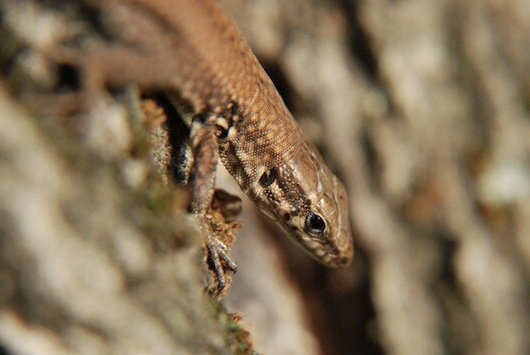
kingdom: Animalia
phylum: Chordata
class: Squamata
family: Lacertidae
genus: Podarcis
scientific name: Podarcis muralis
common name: Common wall lizard
